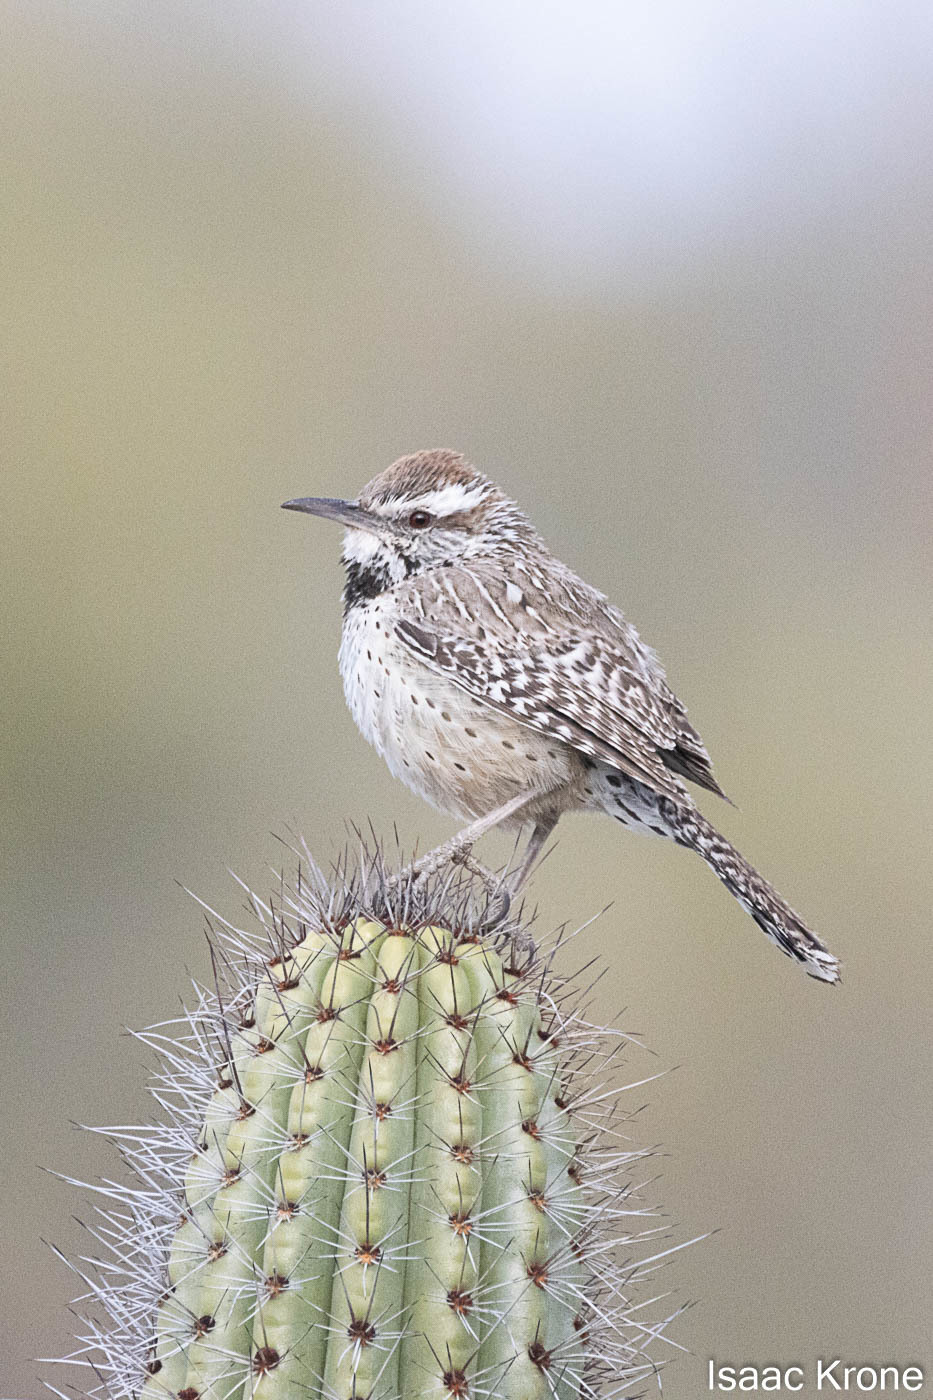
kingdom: Animalia
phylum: Chordata
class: Aves
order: Passeriformes
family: Troglodytidae
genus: Campylorhynchus
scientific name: Campylorhynchus brunneicapillus
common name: Cactus wren
